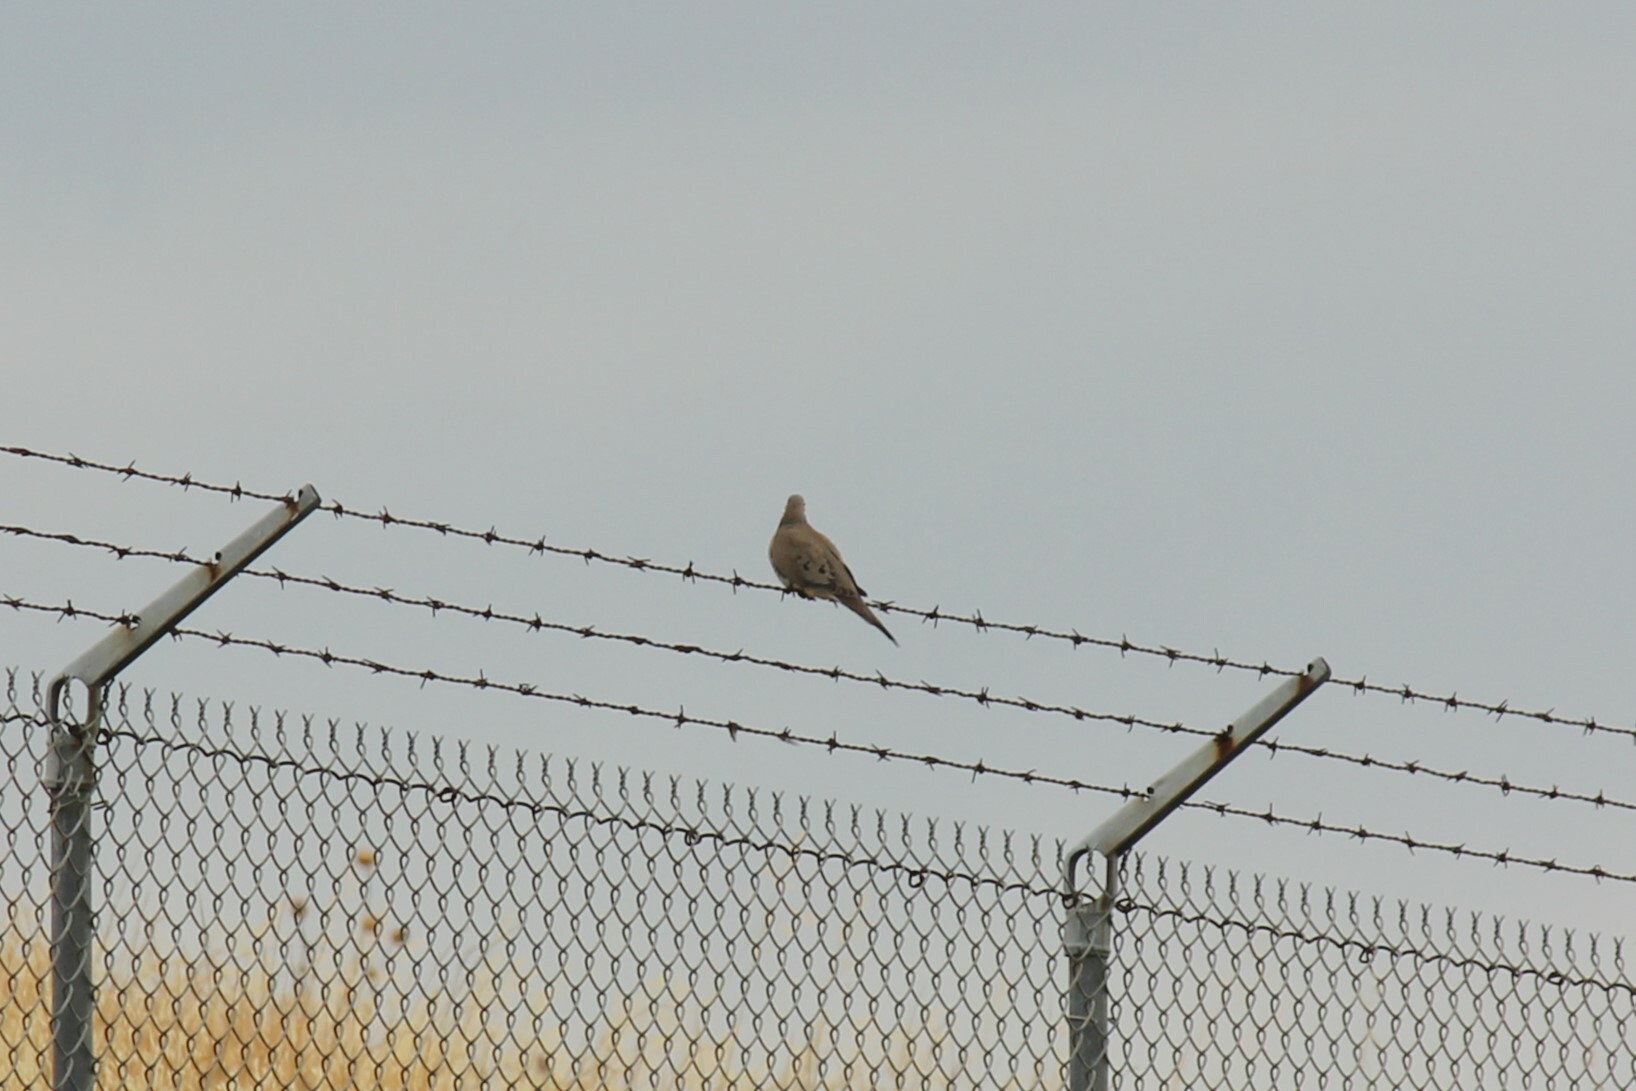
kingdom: Animalia
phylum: Chordata
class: Aves
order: Columbiformes
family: Columbidae
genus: Zenaida
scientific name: Zenaida macroura
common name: Mourning dove
